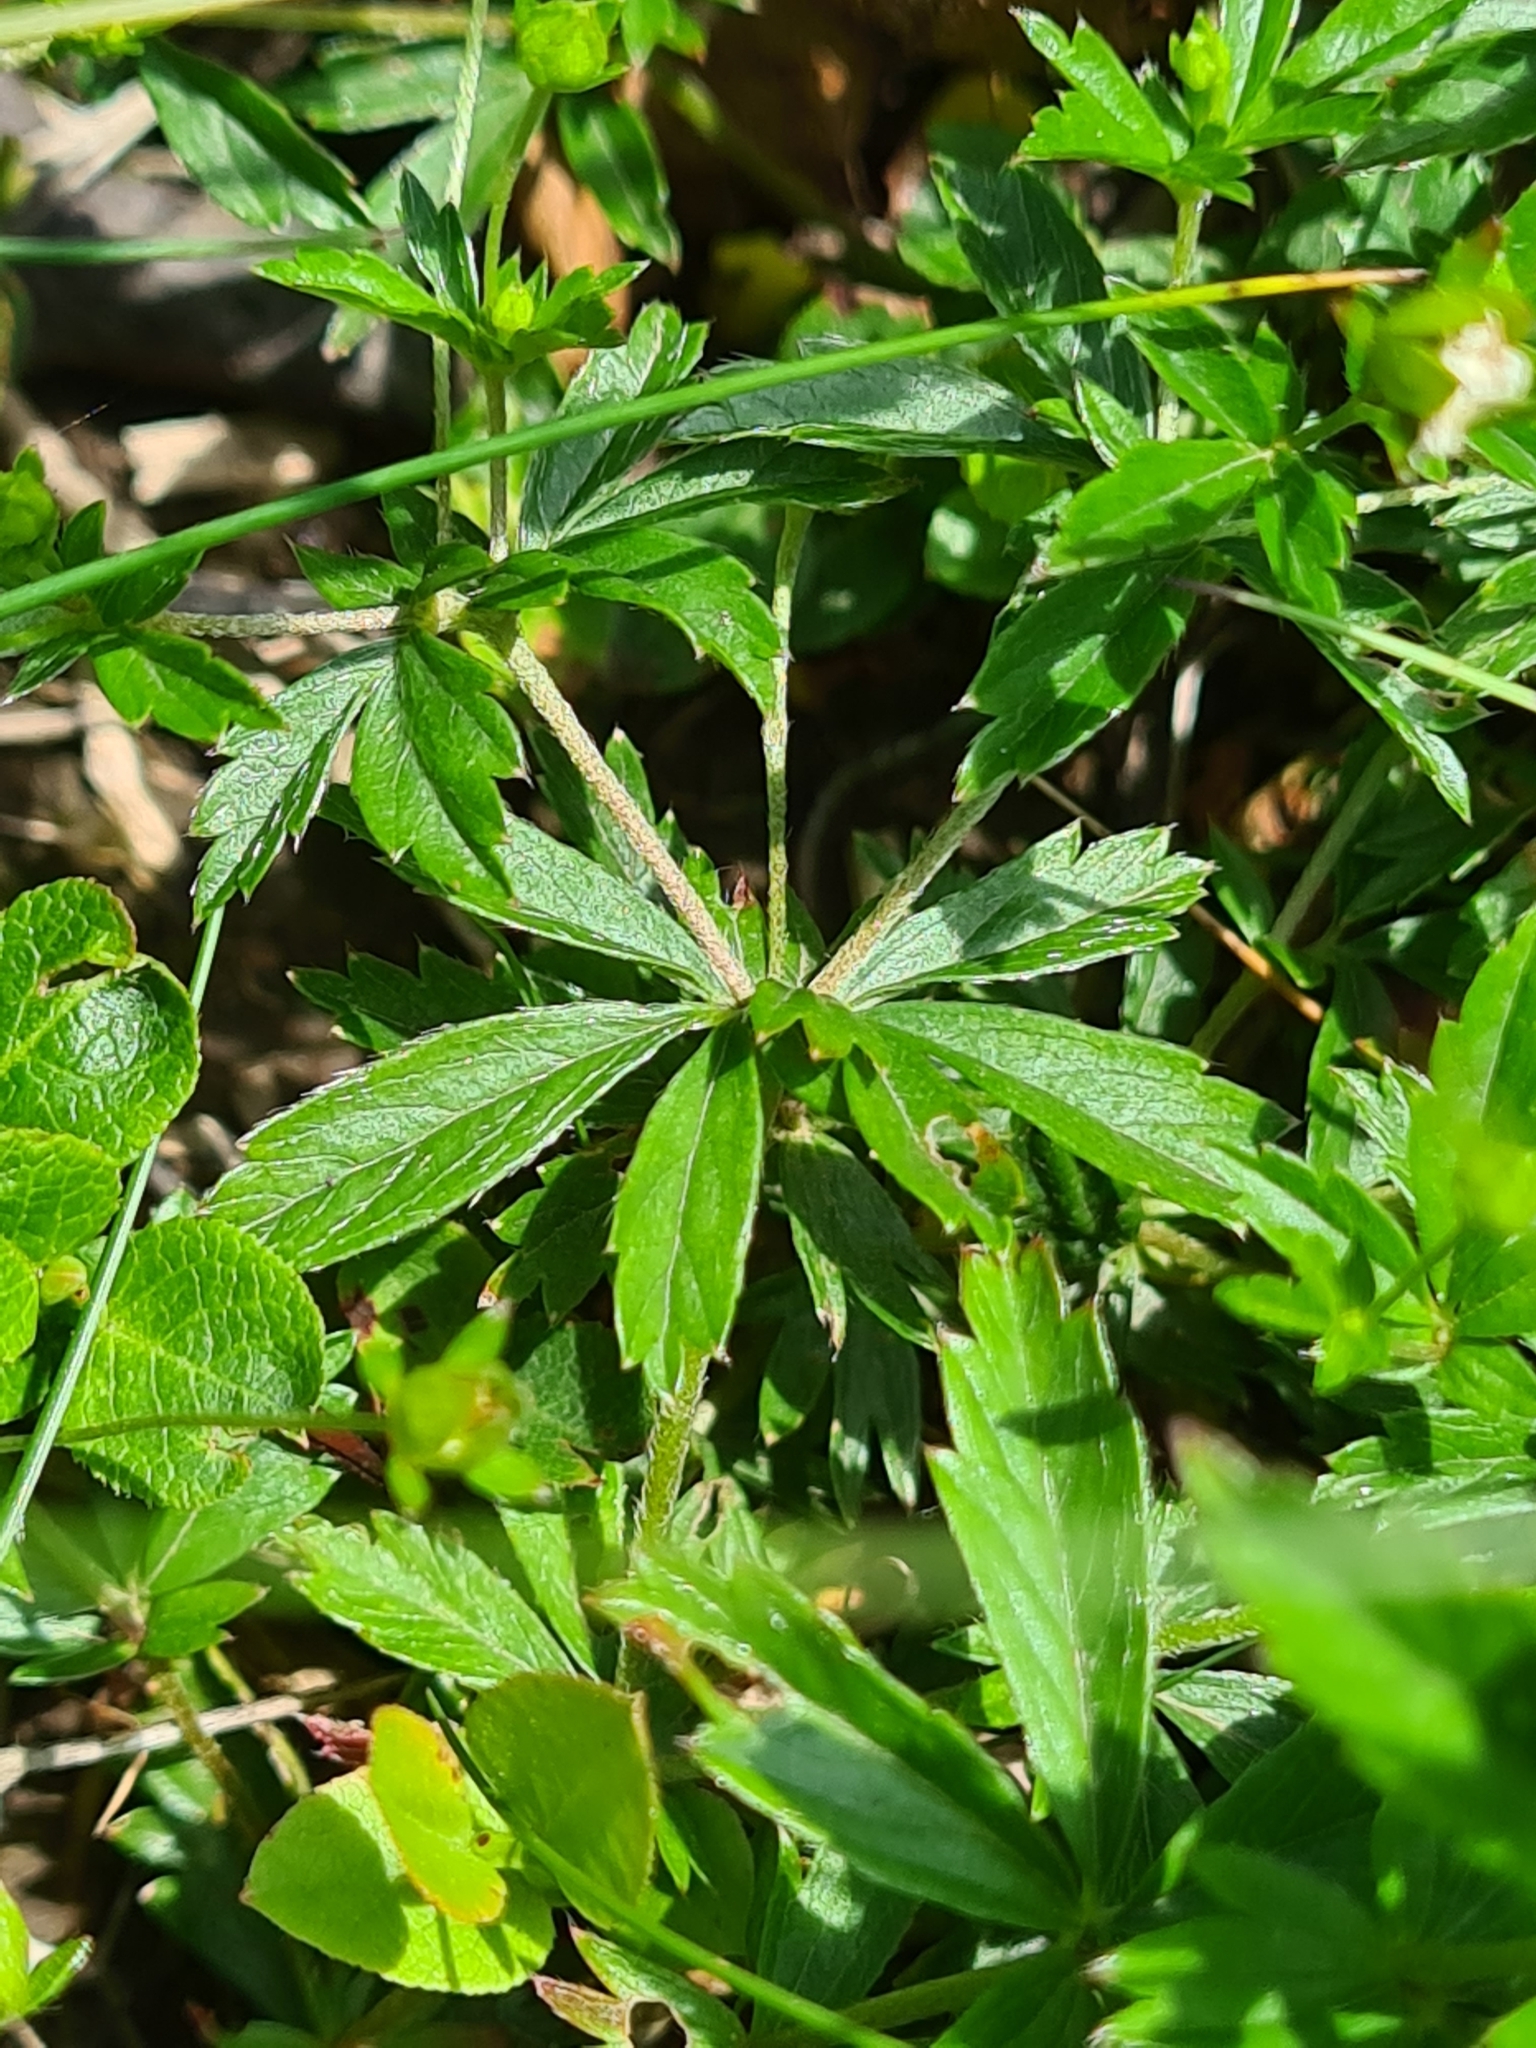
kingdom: Plantae
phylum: Tracheophyta
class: Magnoliopsida
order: Rosales
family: Rosaceae
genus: Potentilla
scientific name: Potentilla erecta
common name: Tormentil
